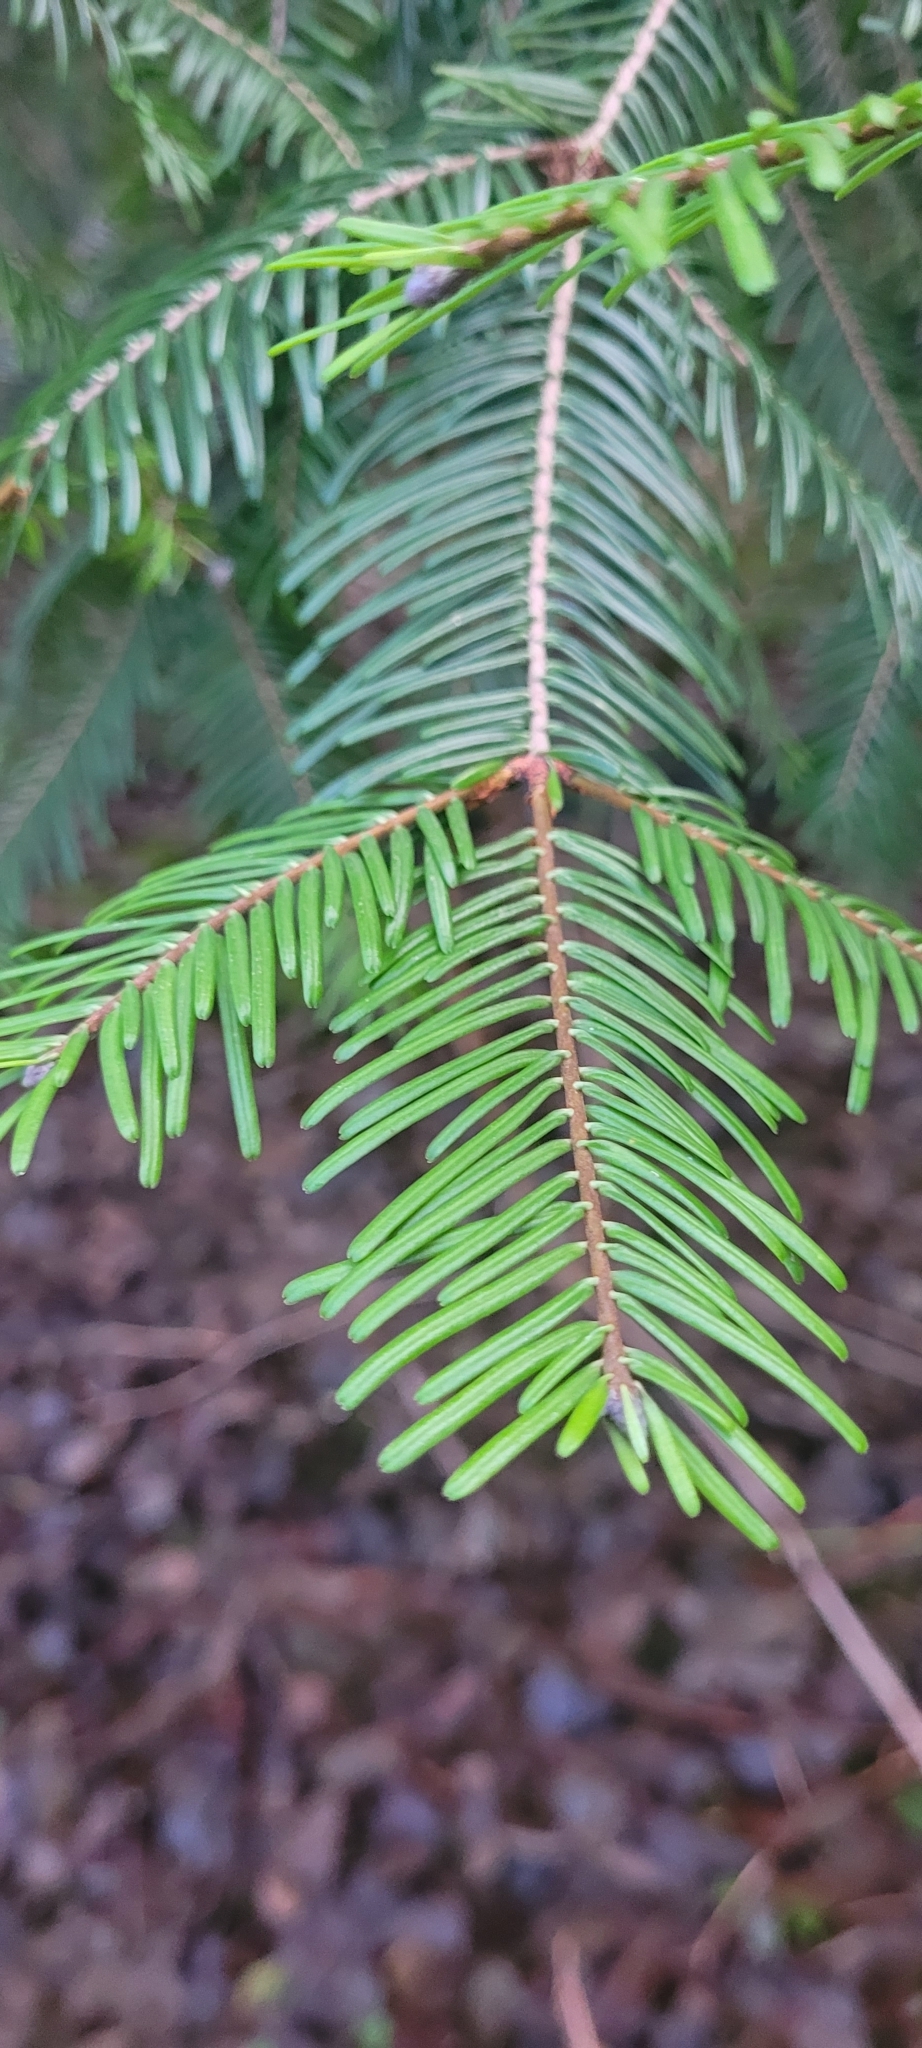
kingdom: Plantae
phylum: Tracheophyta
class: Pinopsida
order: Pinales
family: Pinaceae
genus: Abies
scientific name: Abies grandis
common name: Giant fir
